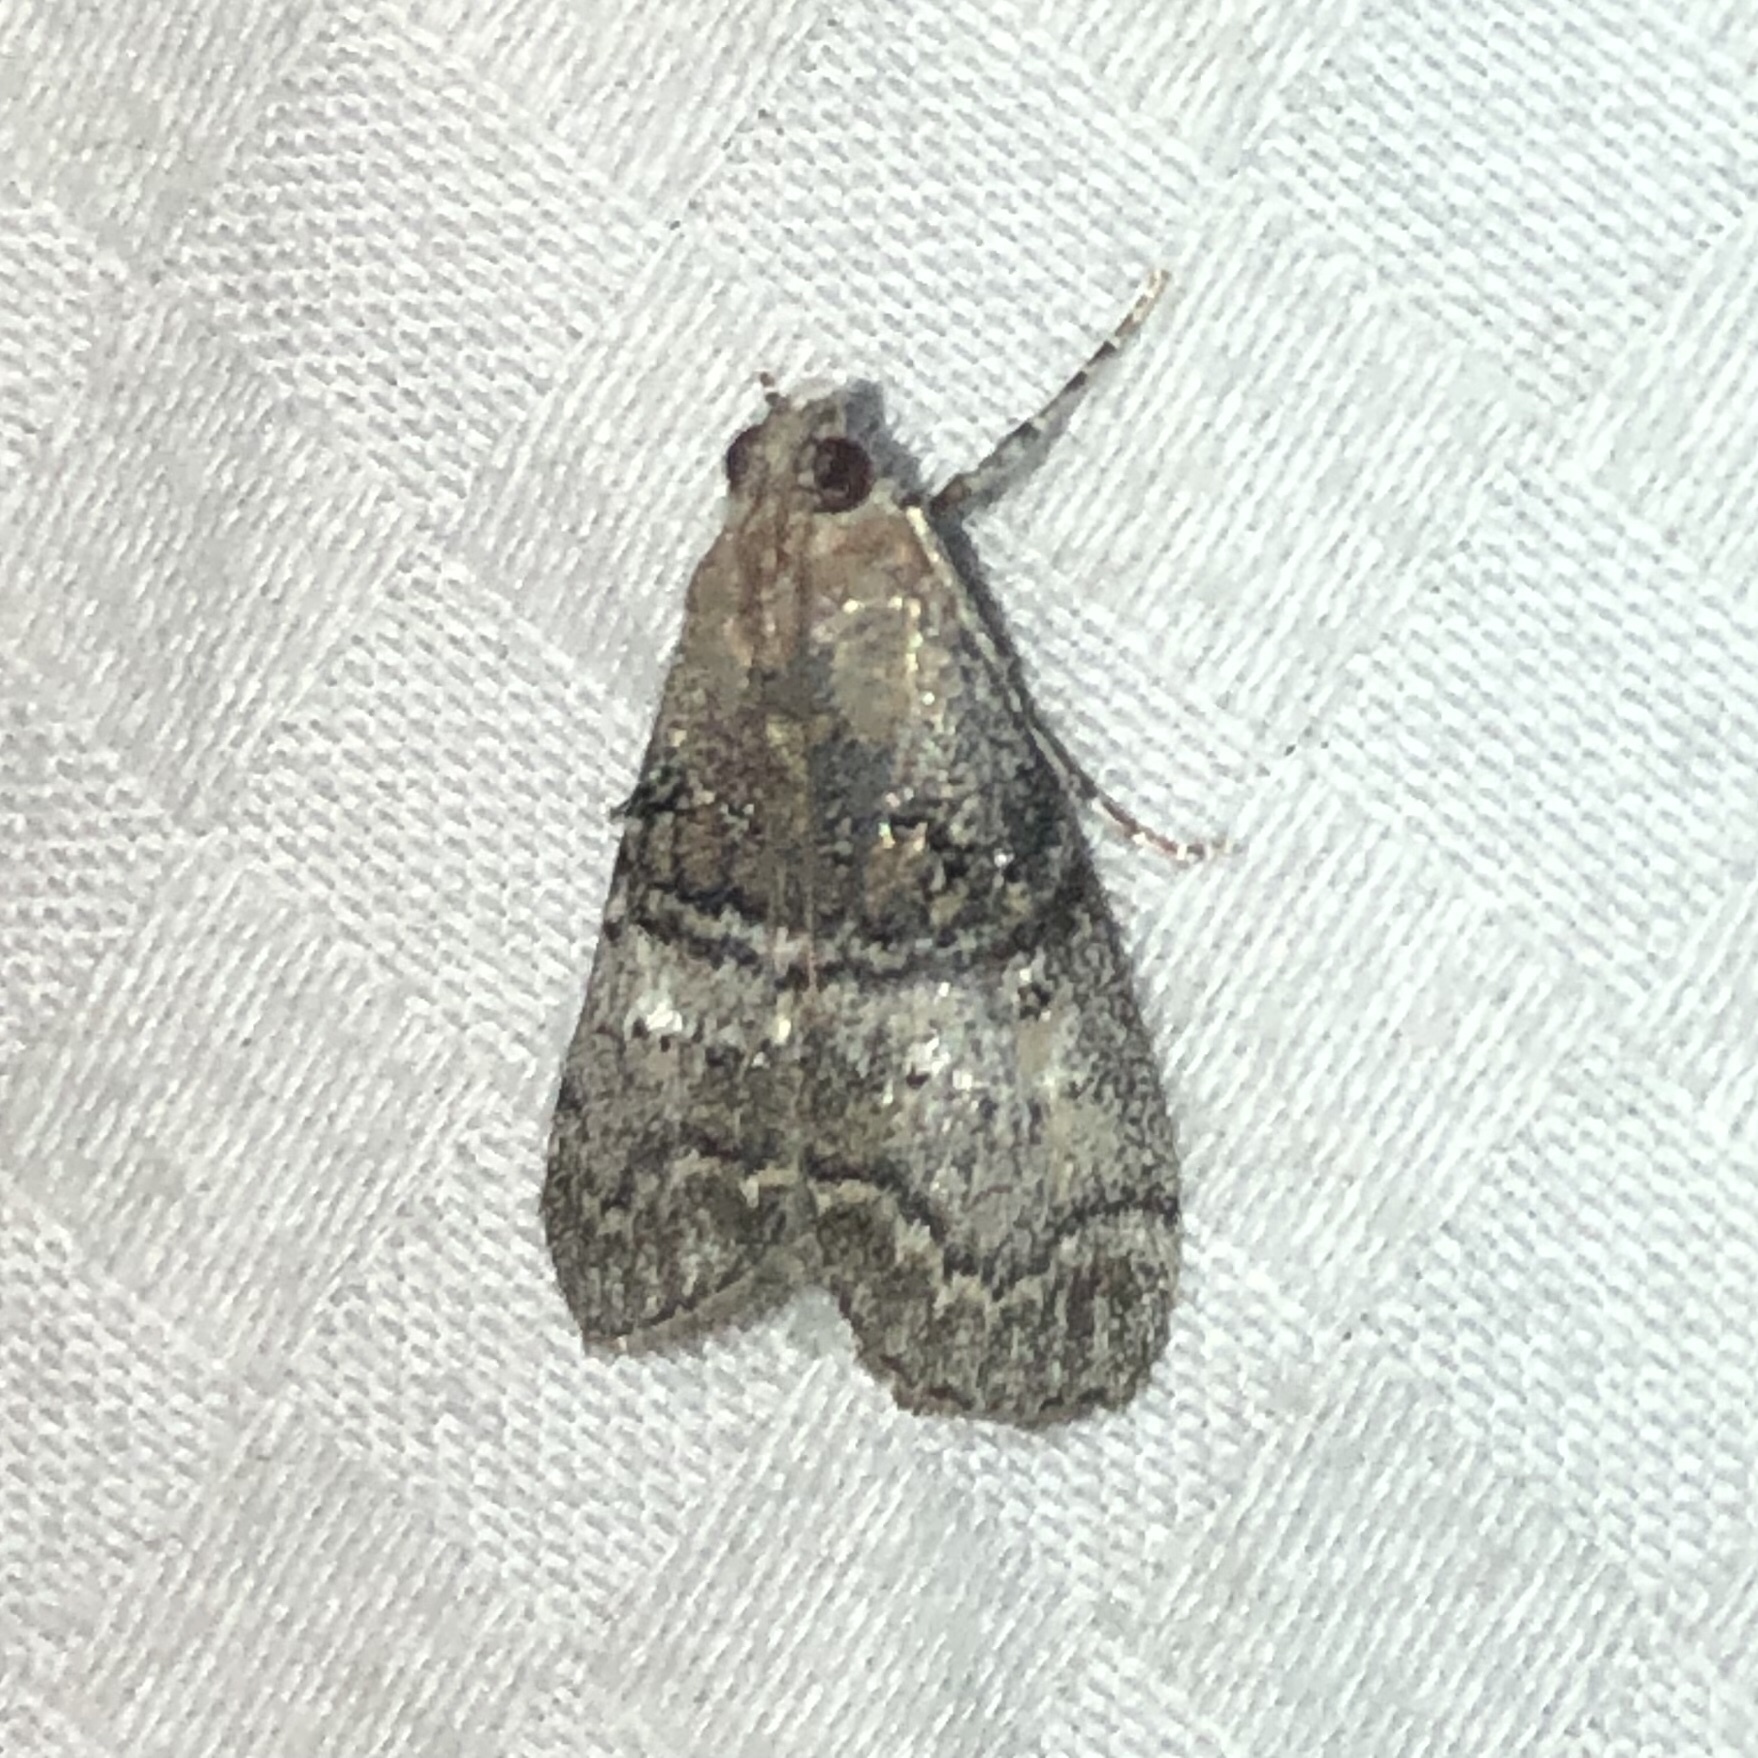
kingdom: Animalia
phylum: Arthropoda
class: Insecta
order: Lepidoptera
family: Pyralidae
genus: Pococera
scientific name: Pococera asperatella
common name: Maple webworm moth
